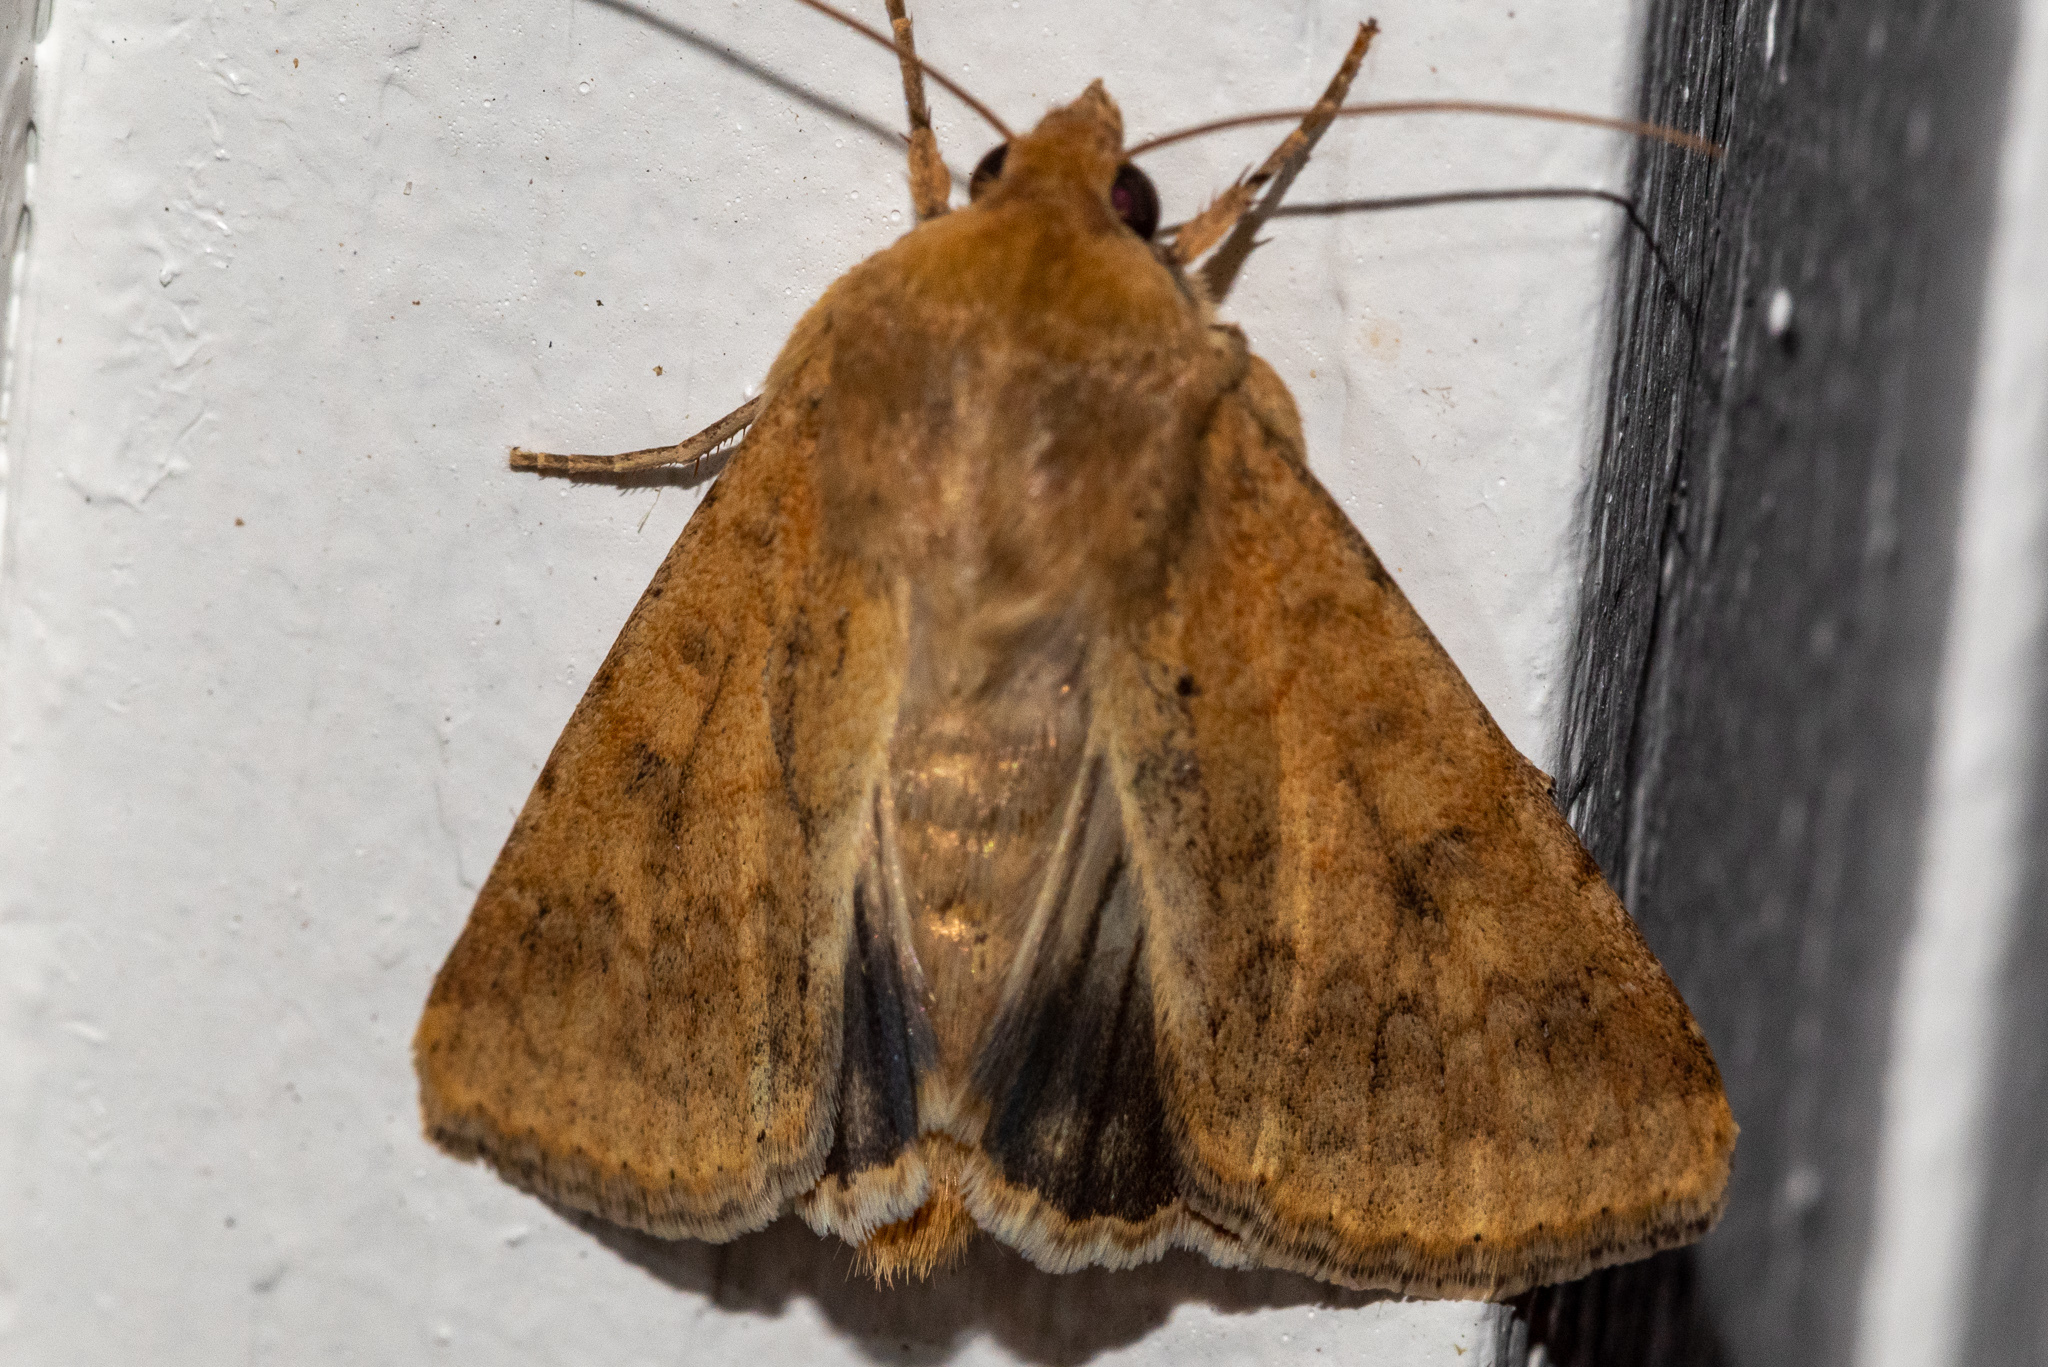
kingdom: Animalia
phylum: Arthropoda
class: Insecta
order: Lepidoptera
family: Noctuidae
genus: Helicoverpa
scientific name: Helicoverpa zea
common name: Bollworm
